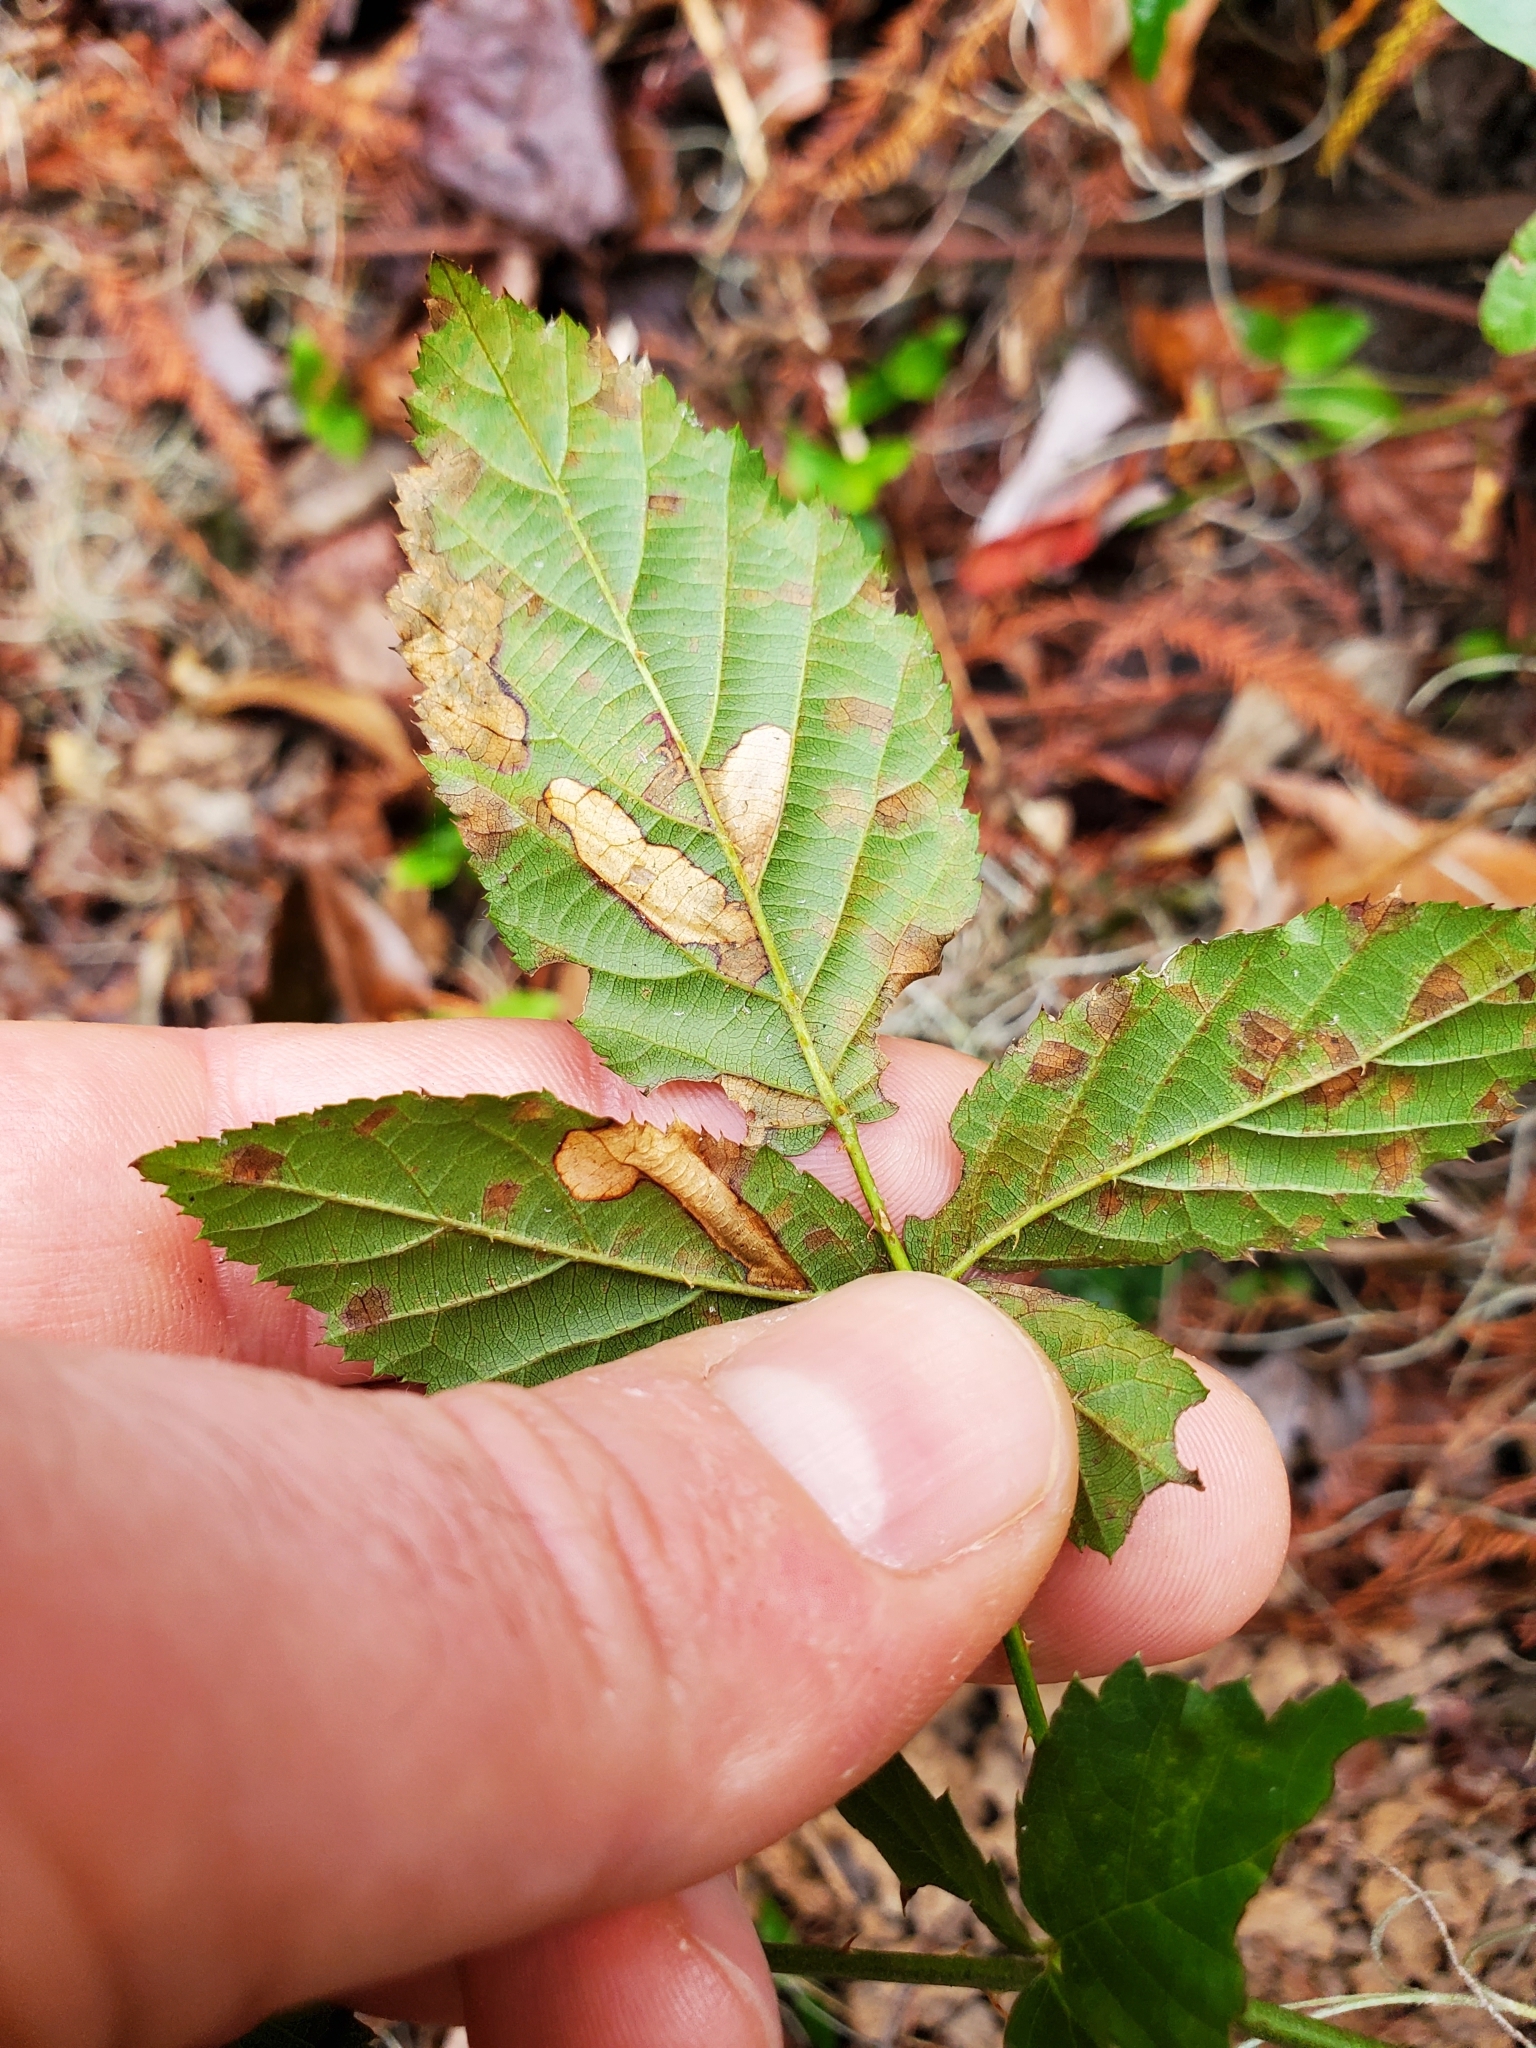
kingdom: Animalia
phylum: Arthropoda
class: Insecta
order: Lepidoptera
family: Nepticulidae
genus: Ectoedemia
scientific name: Ectoedemia rubifoliella
